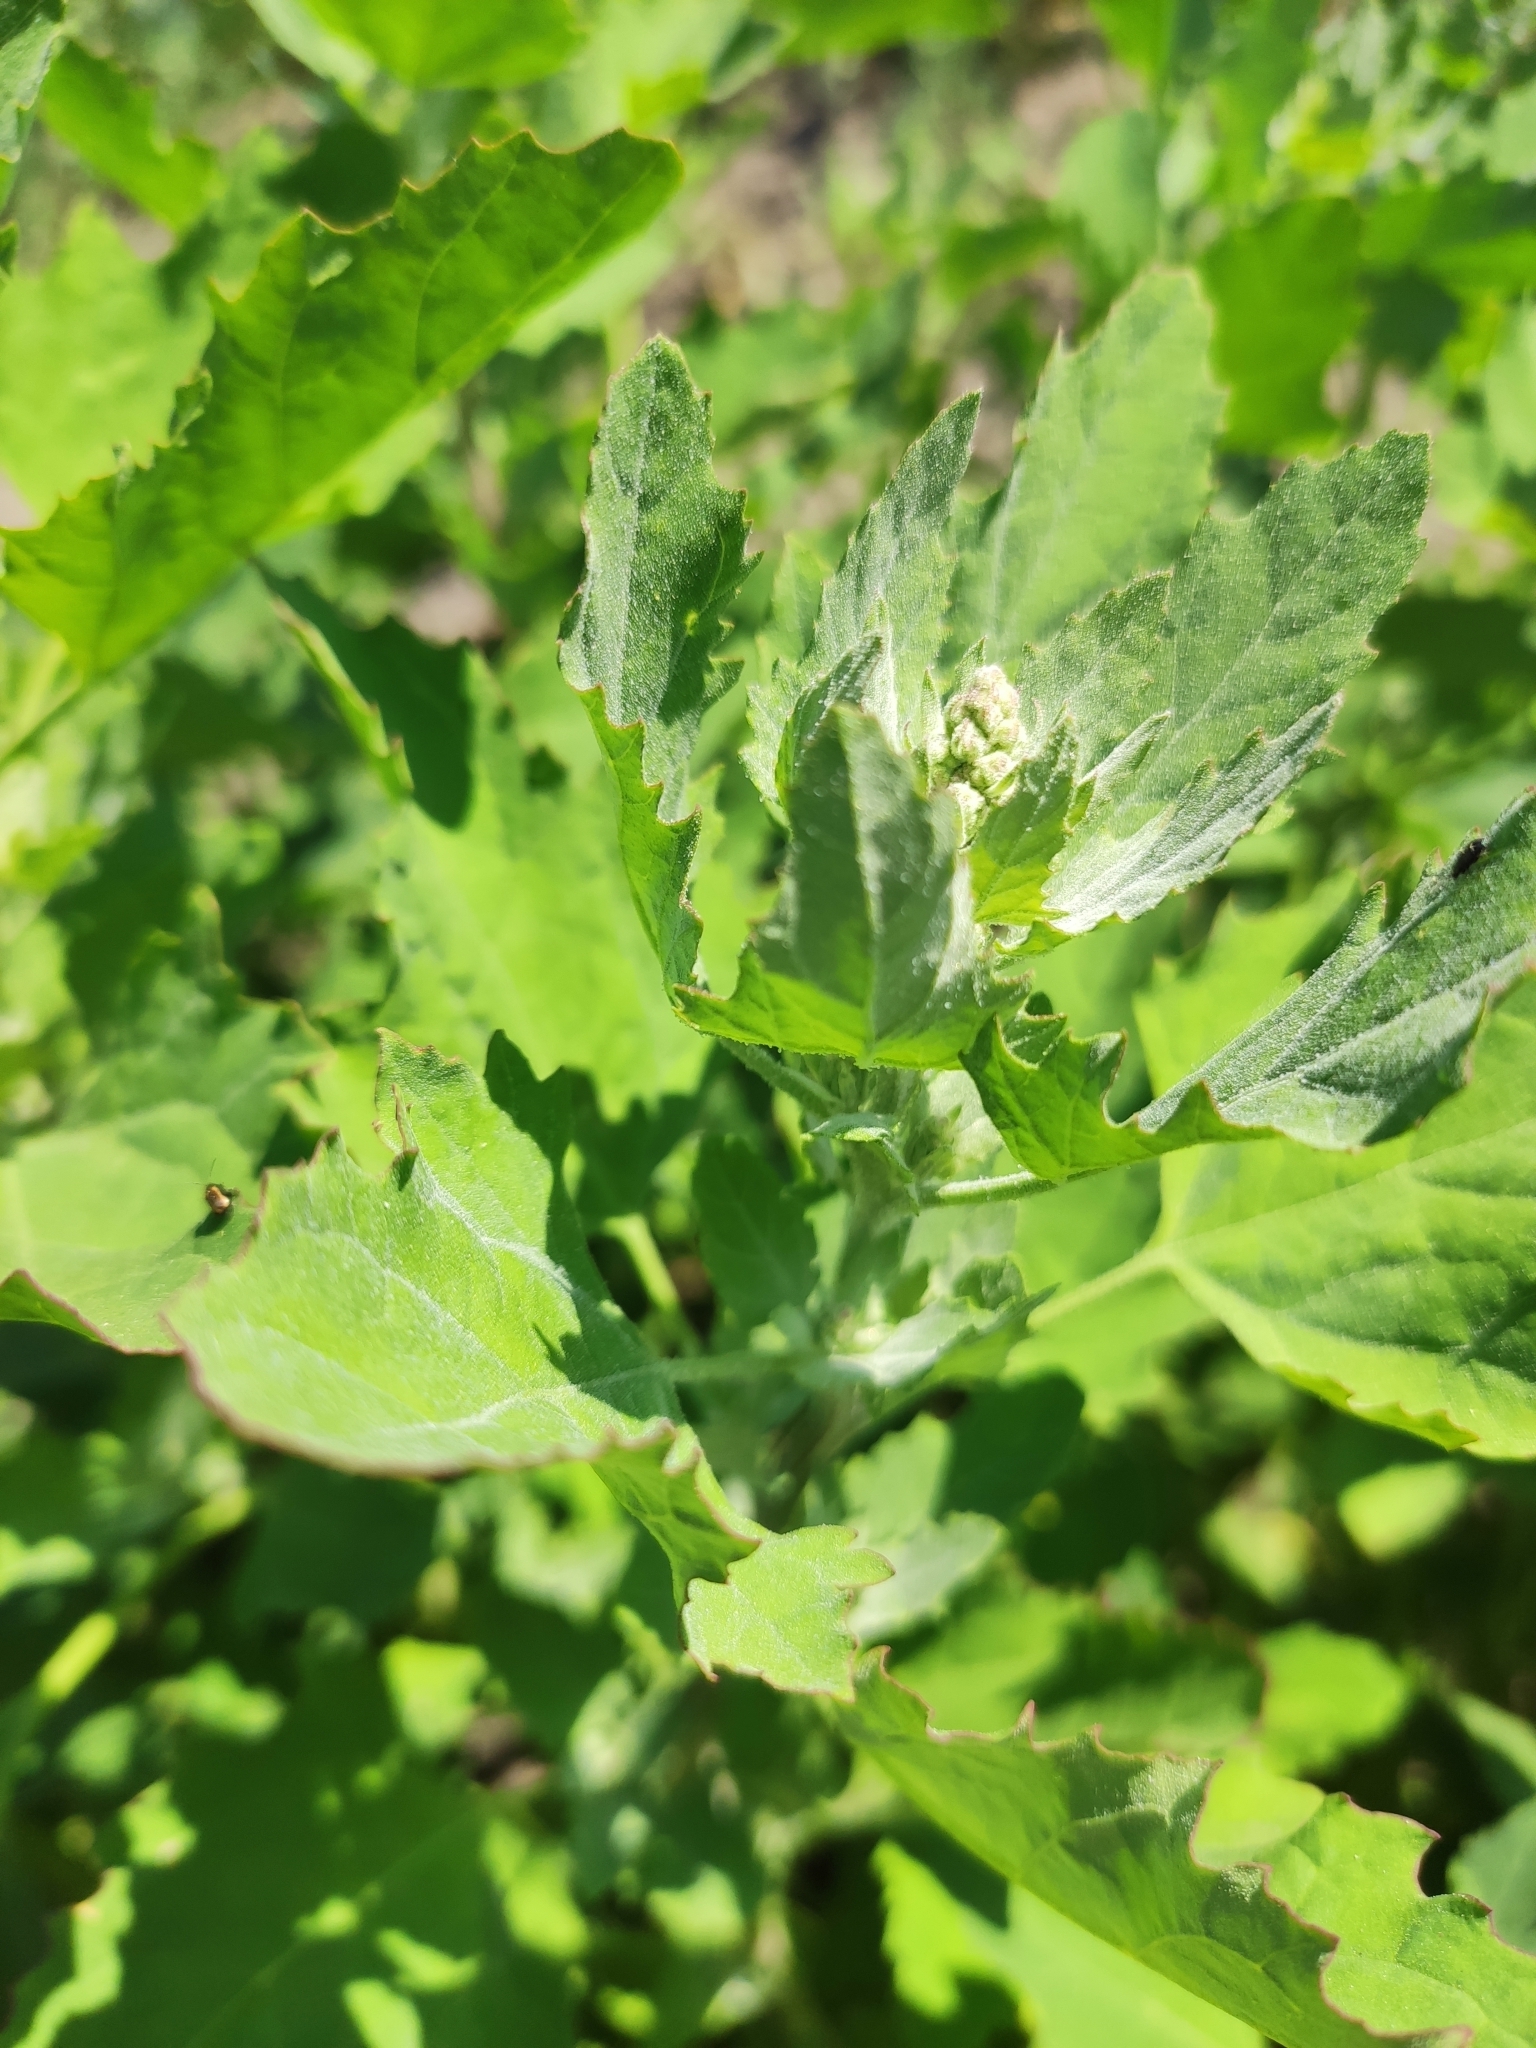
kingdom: Plantae
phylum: Tracheophyta
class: Magnoliopsida
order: Caryophyllales
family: Amaranthaceae
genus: Chenopodium
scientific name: Chenopodium album
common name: Fat-hen
